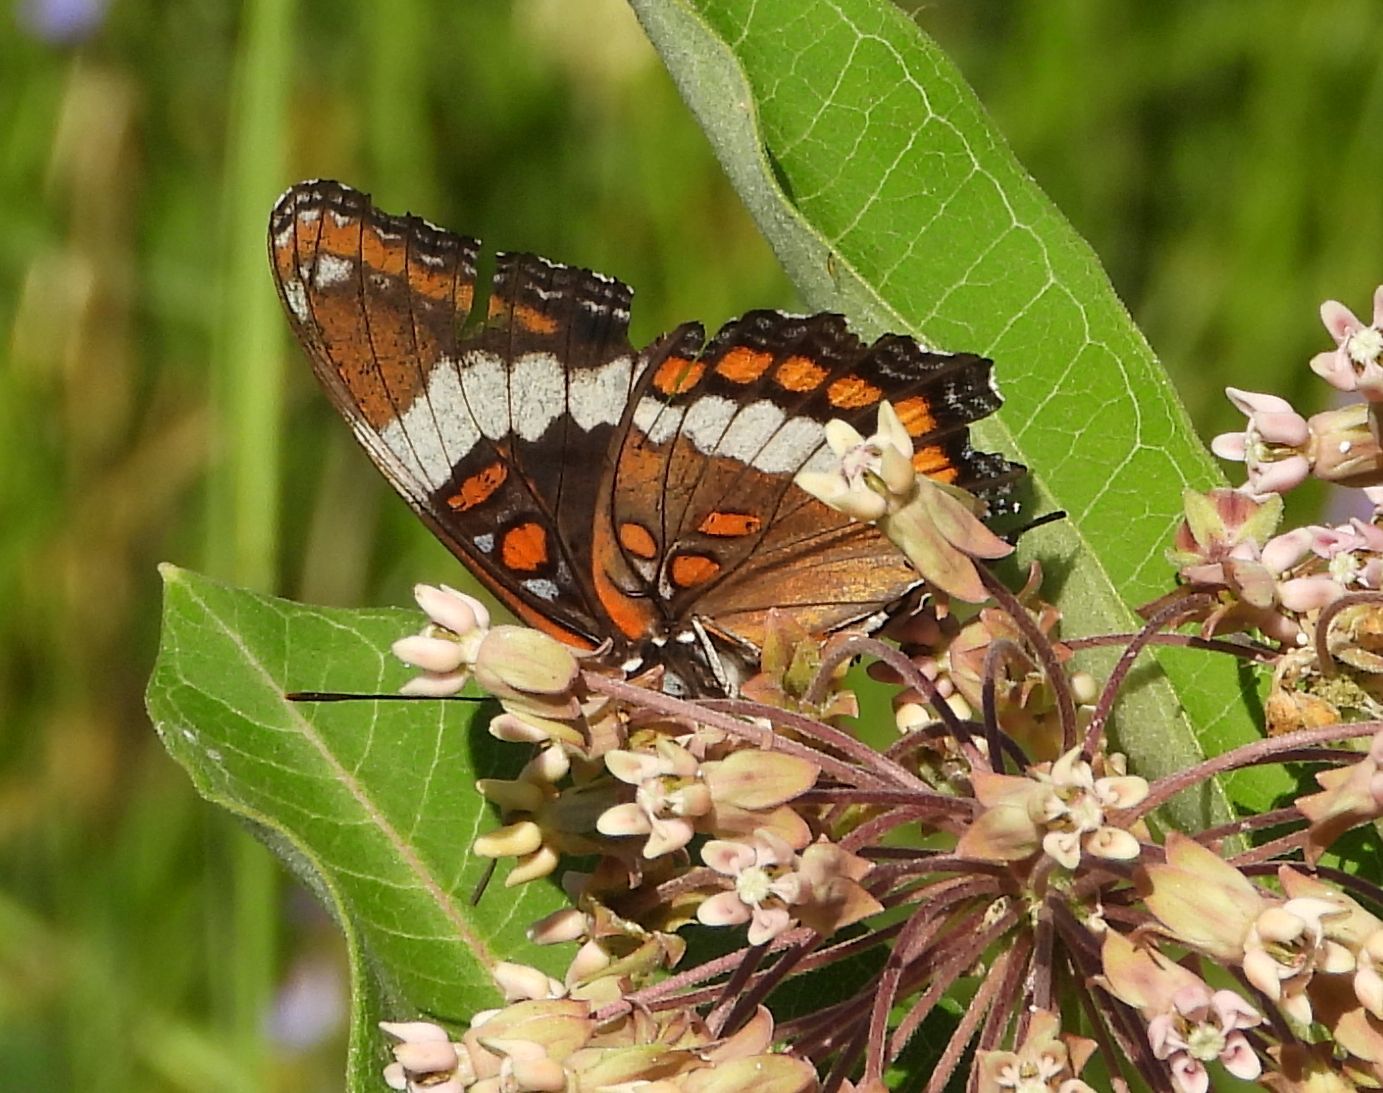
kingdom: Animalia
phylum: Arthropoda
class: Insecta
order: Lepidoptera
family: Nymphalidae
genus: Limenitis
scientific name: Limenitis arthemis
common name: Red-spotted admiral
